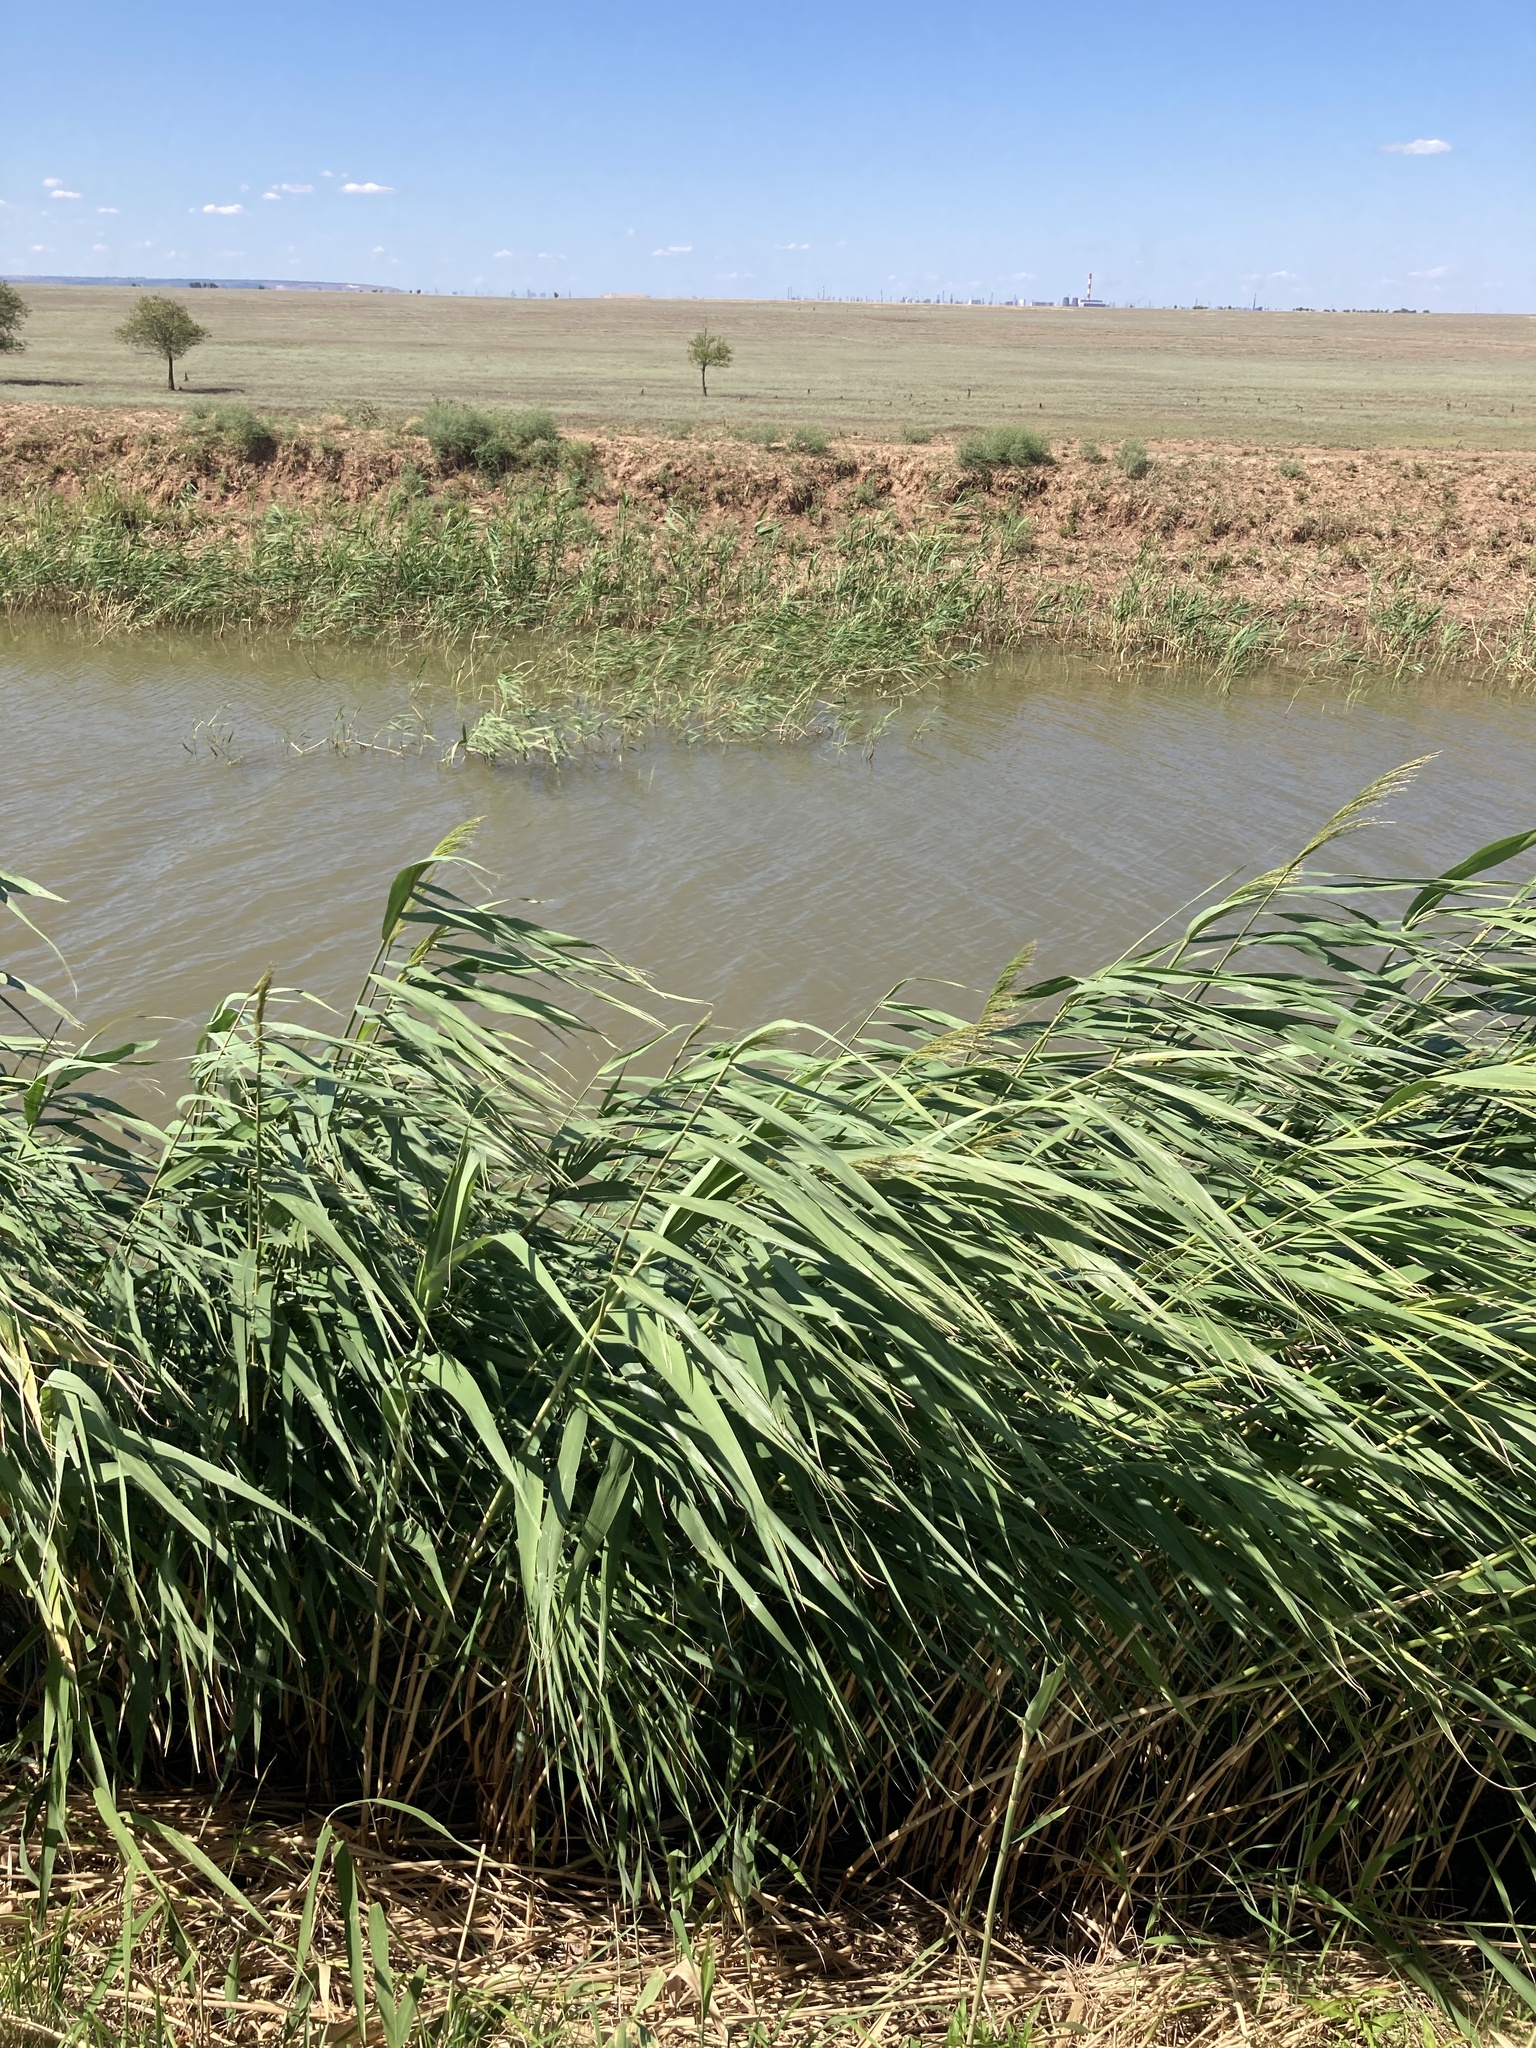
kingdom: Plantae
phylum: Tracheophyta
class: Liliopsida
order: Poales
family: Poaceae
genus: Phragmites
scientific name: Phragmites australis
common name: Common reed
